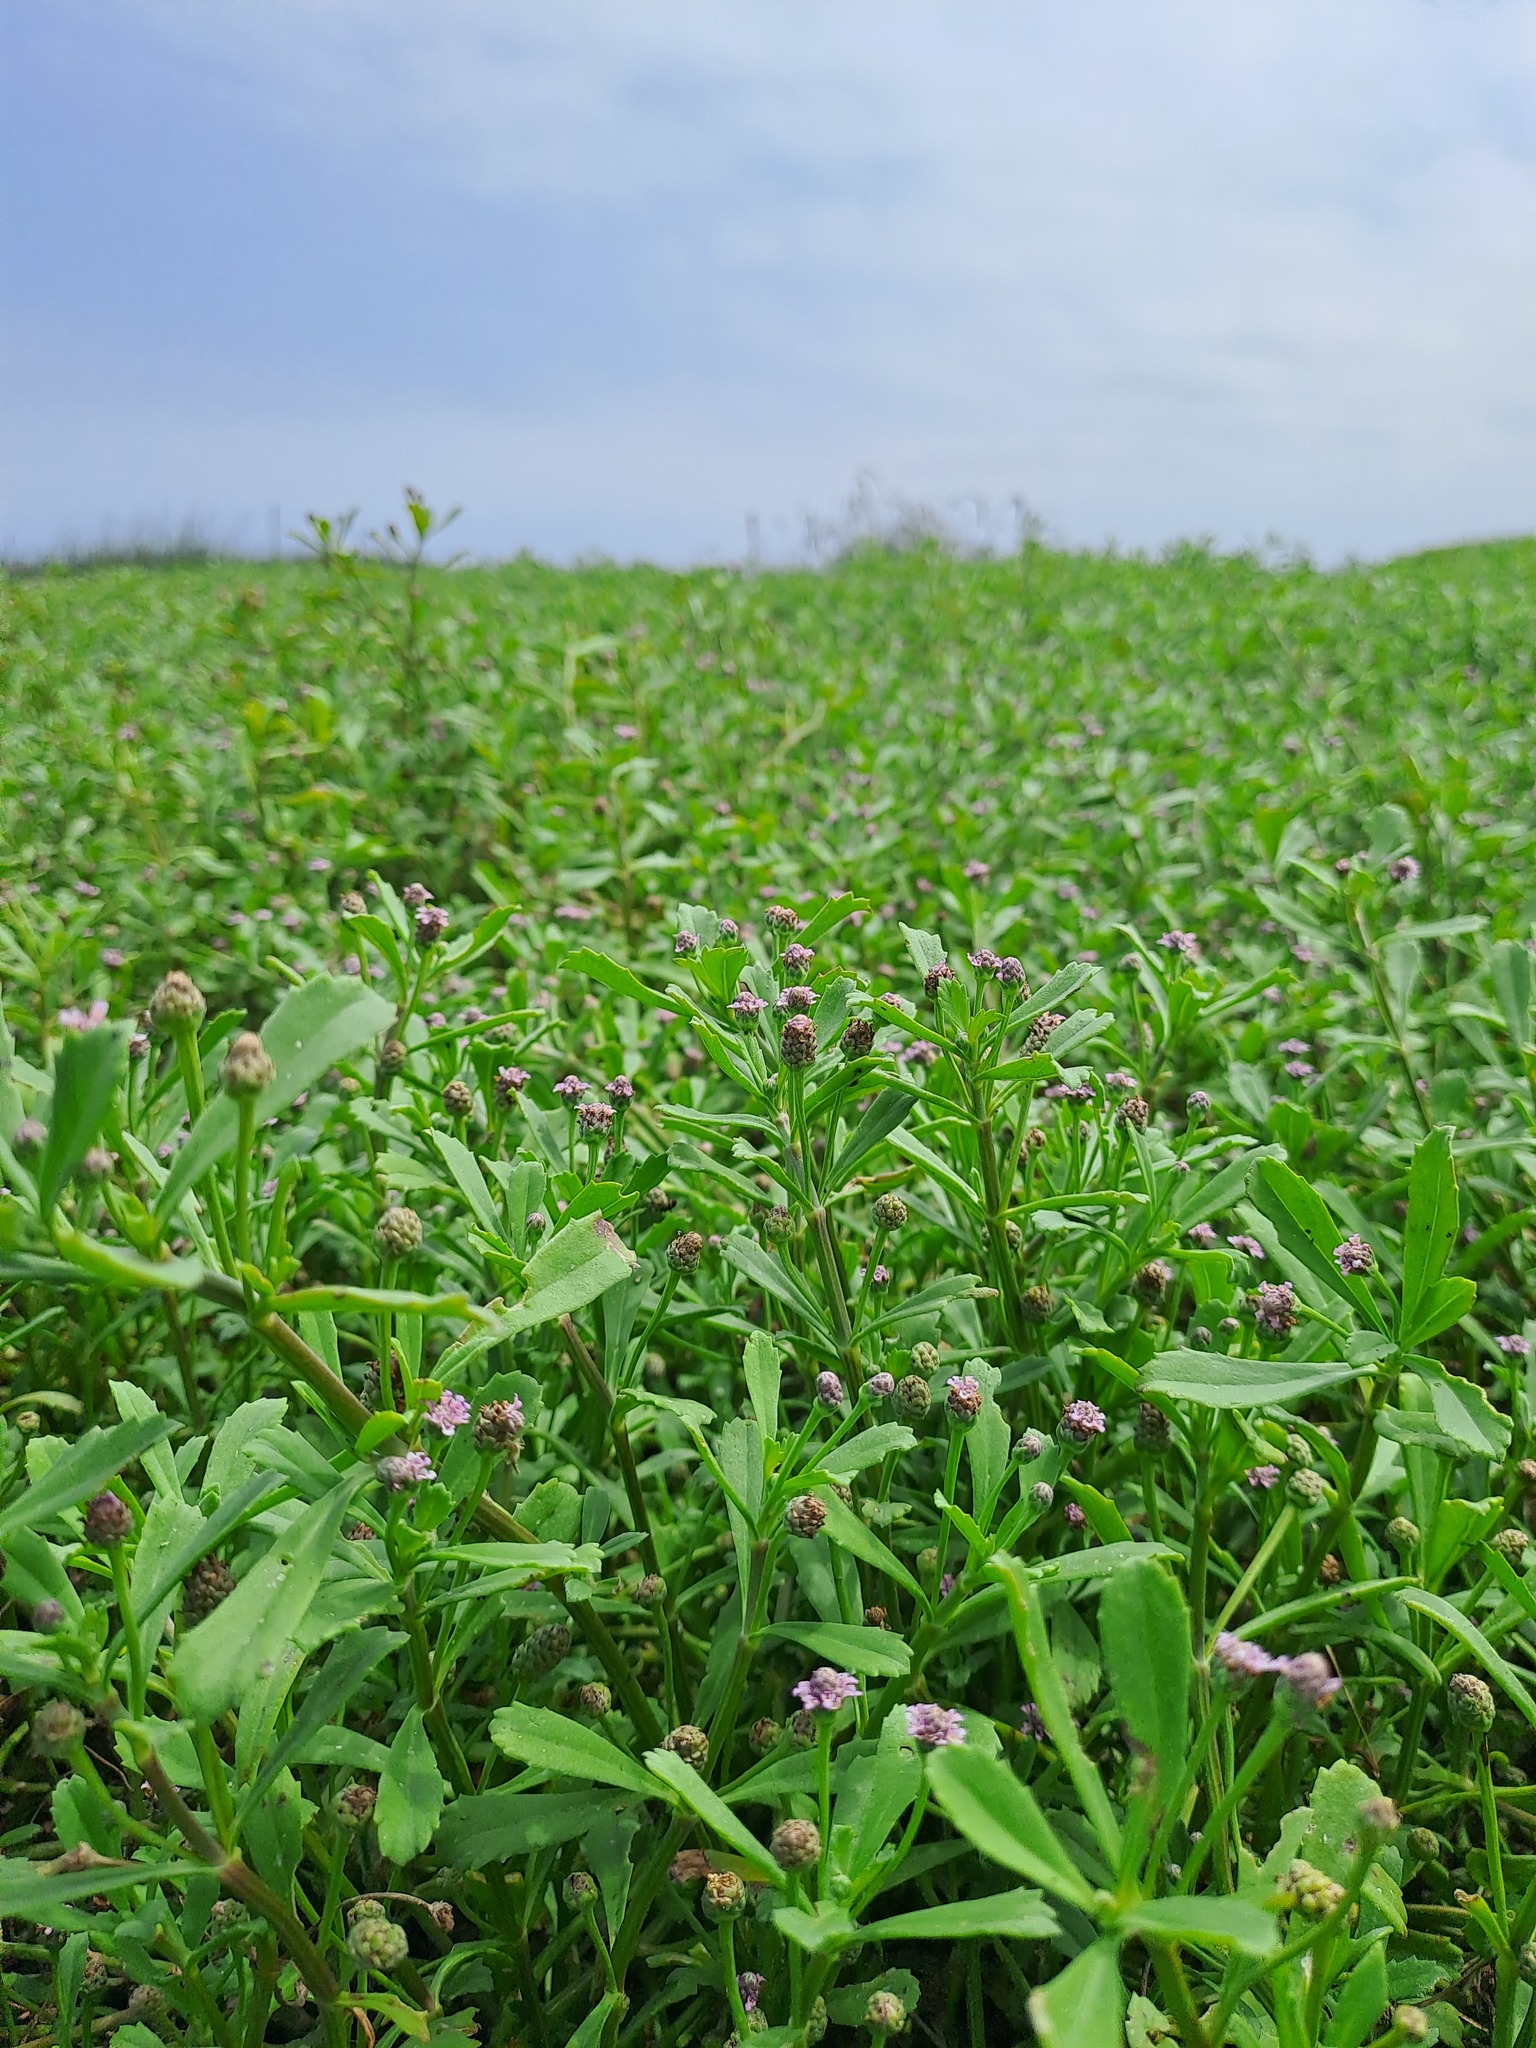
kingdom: Plantae
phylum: Tracheophyta
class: Magnoliopsida
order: Lamiales
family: Verbenaceae
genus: Phyla
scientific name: Phyla nodiflora
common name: Frogfruit
